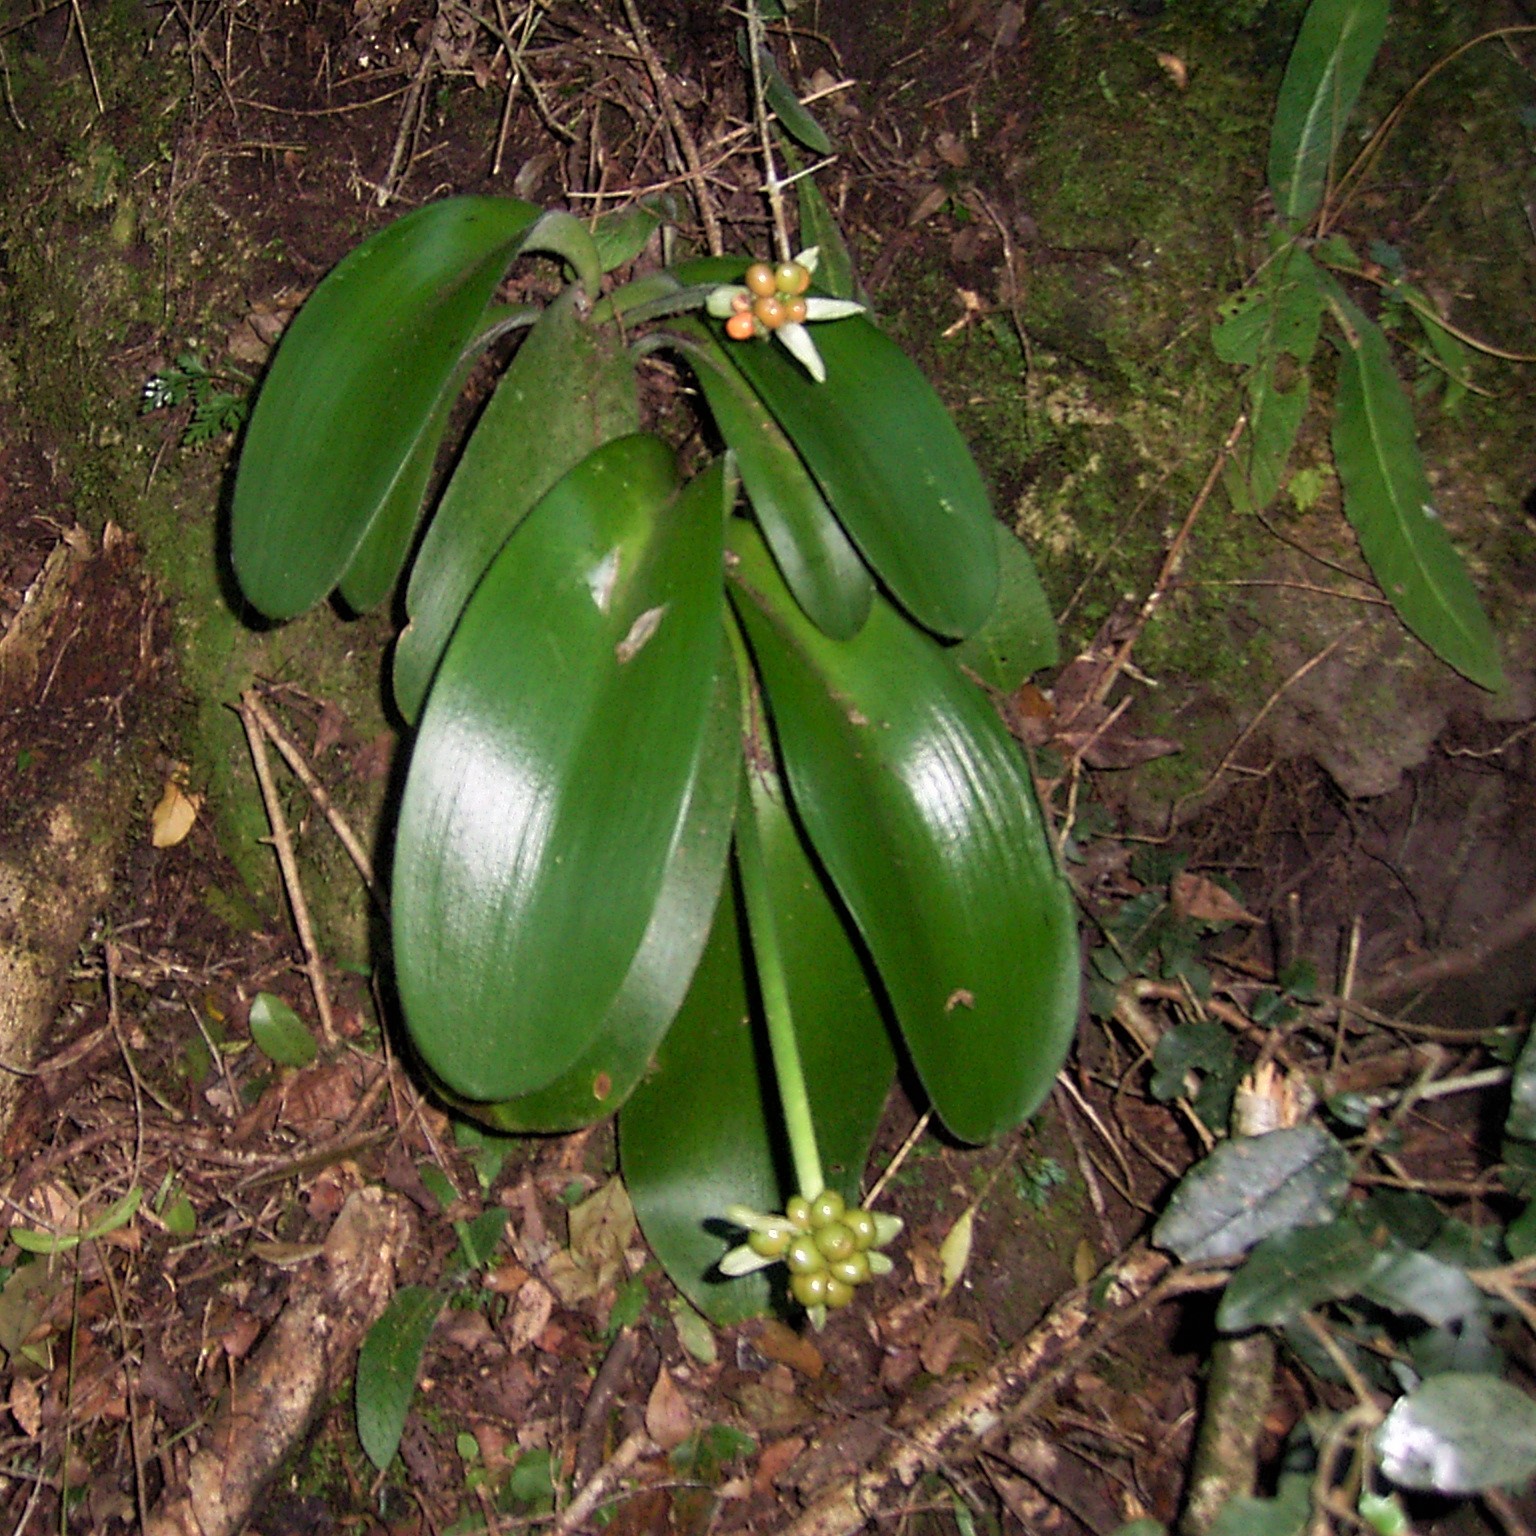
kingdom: Plantae
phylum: Tracheophyta
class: Liliopsida
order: Asparagales
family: Amaryllidaceae
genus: Haemanthus
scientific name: Haemanthus albiflos
